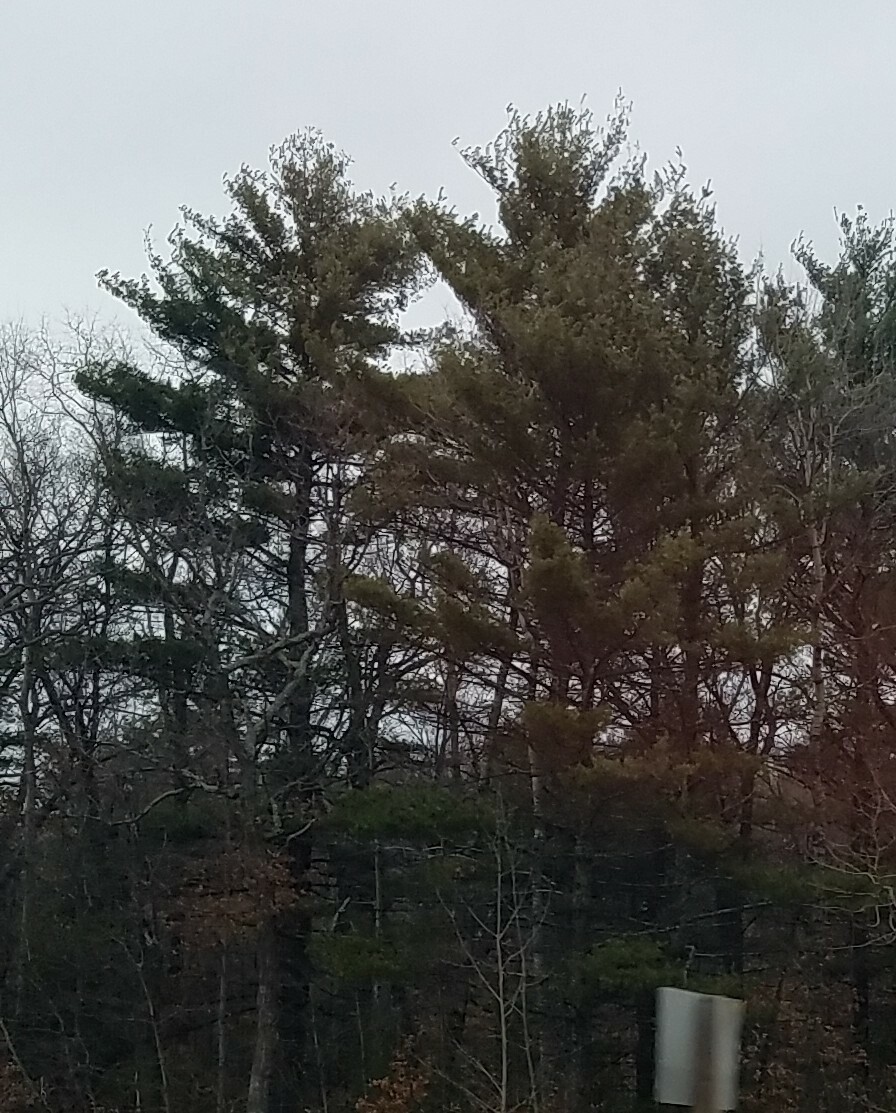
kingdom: Plantae
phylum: Tracheophyta
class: Pinopsida
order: Pinales
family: Pinaceae
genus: Pinus
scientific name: Pinus strobus
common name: Weymouth pine
